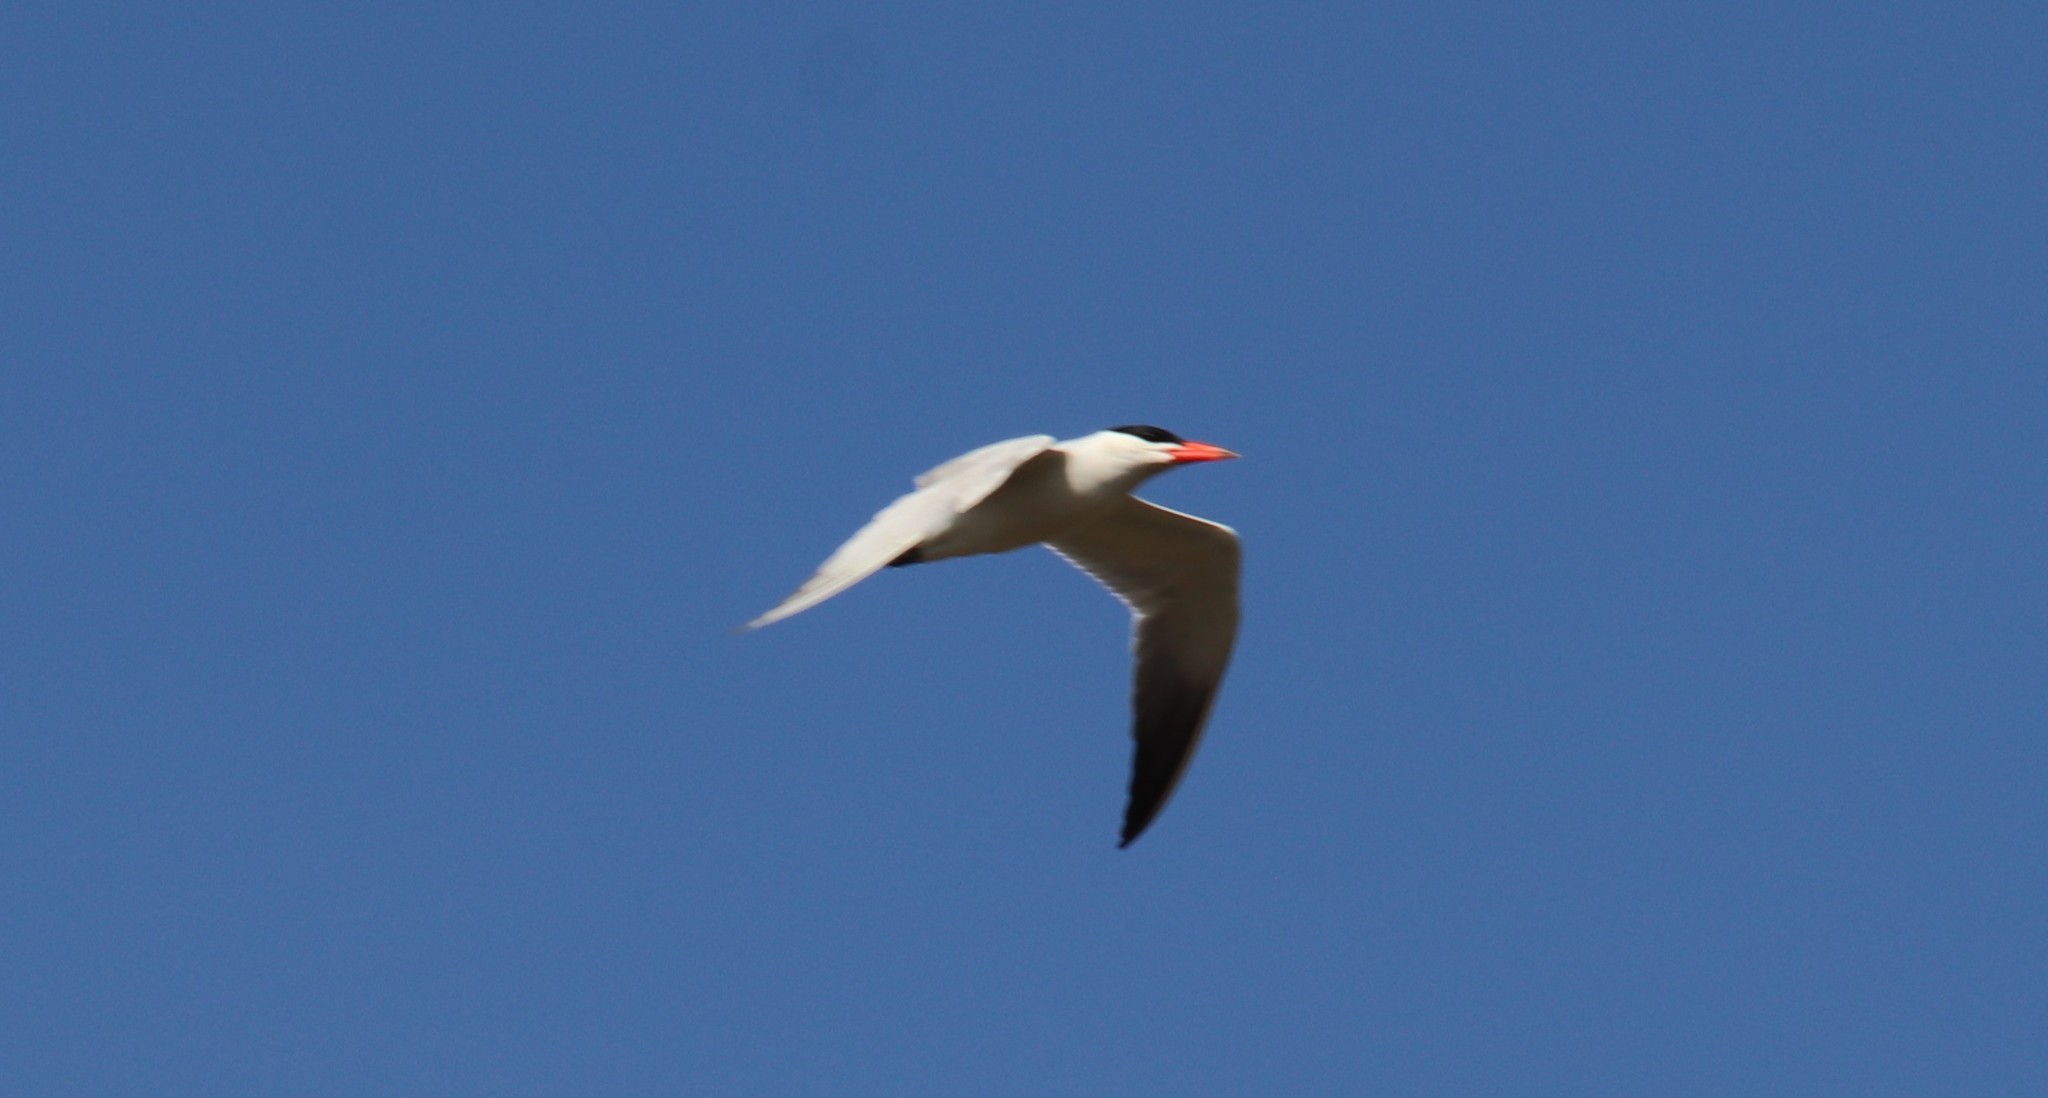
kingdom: Animalia
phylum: Chordata
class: Aves
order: Charadriiformes
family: Laridae
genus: Hydroprogne
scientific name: Hydroprogne caspia
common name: Caspian tern
